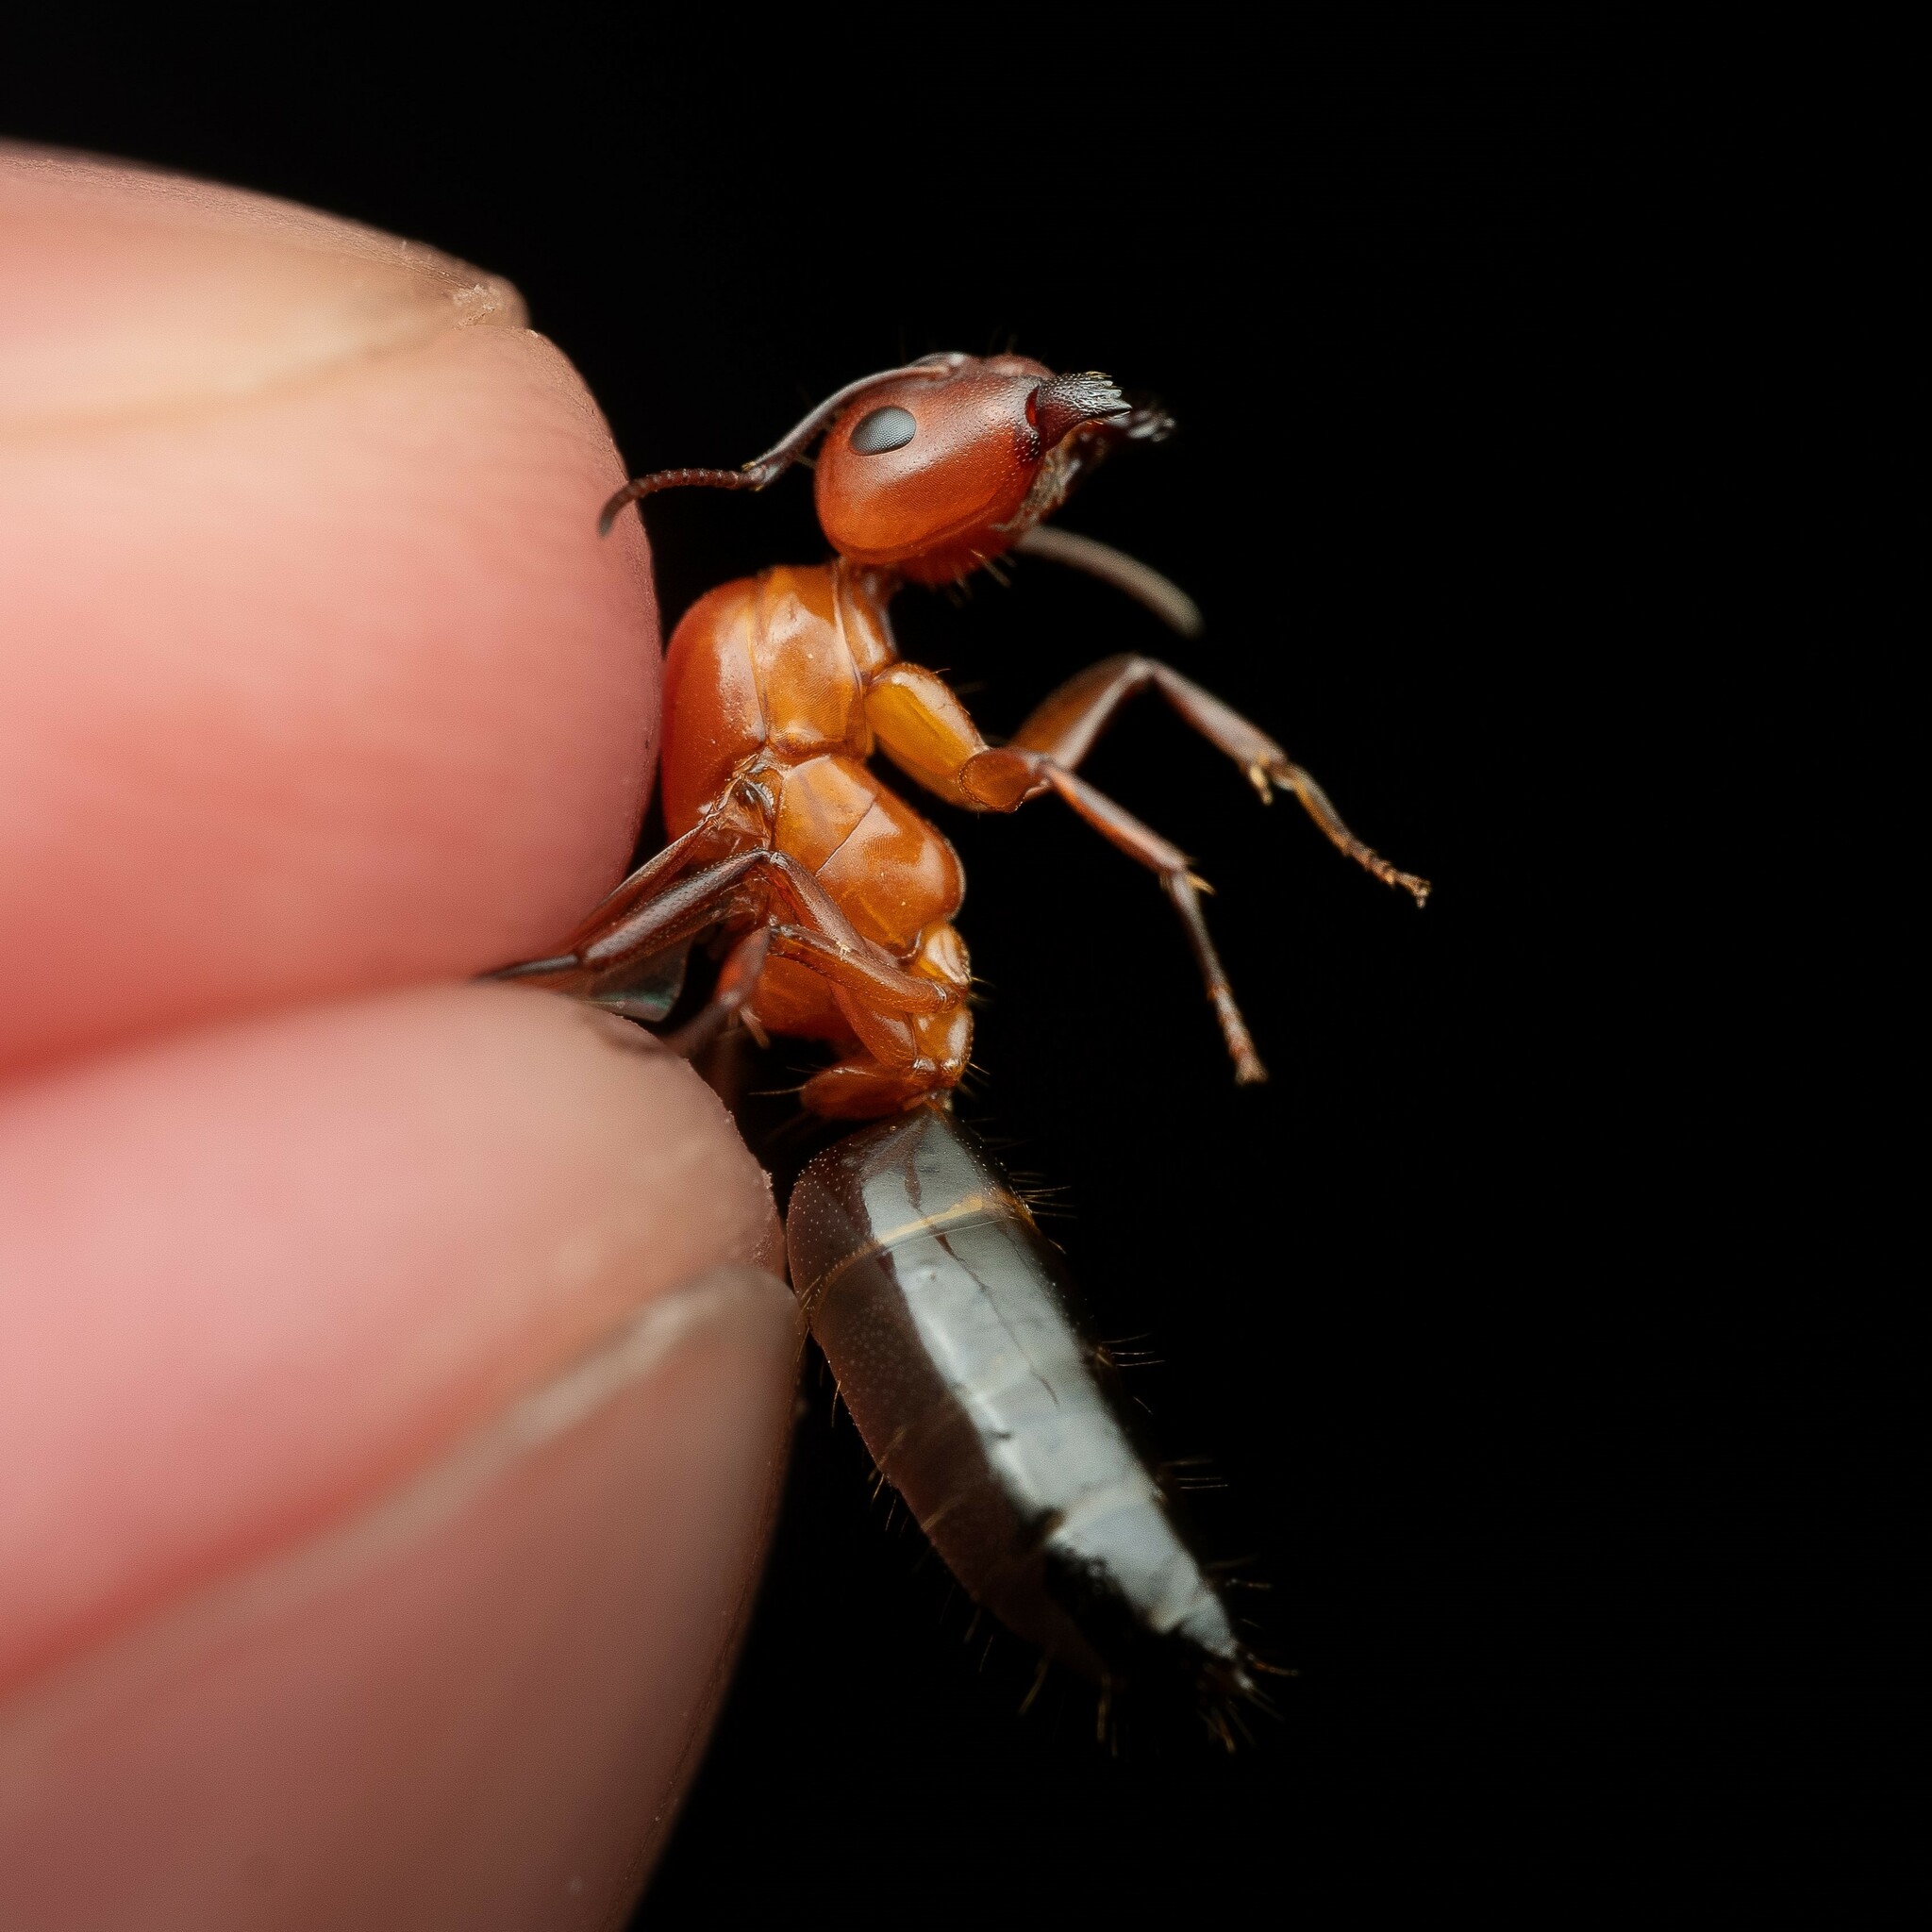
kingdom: Animalia
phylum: Arthropoda
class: Insecta
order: Hymenoptera
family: Formicidae
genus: Camponotus
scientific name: Camponotus sayi
